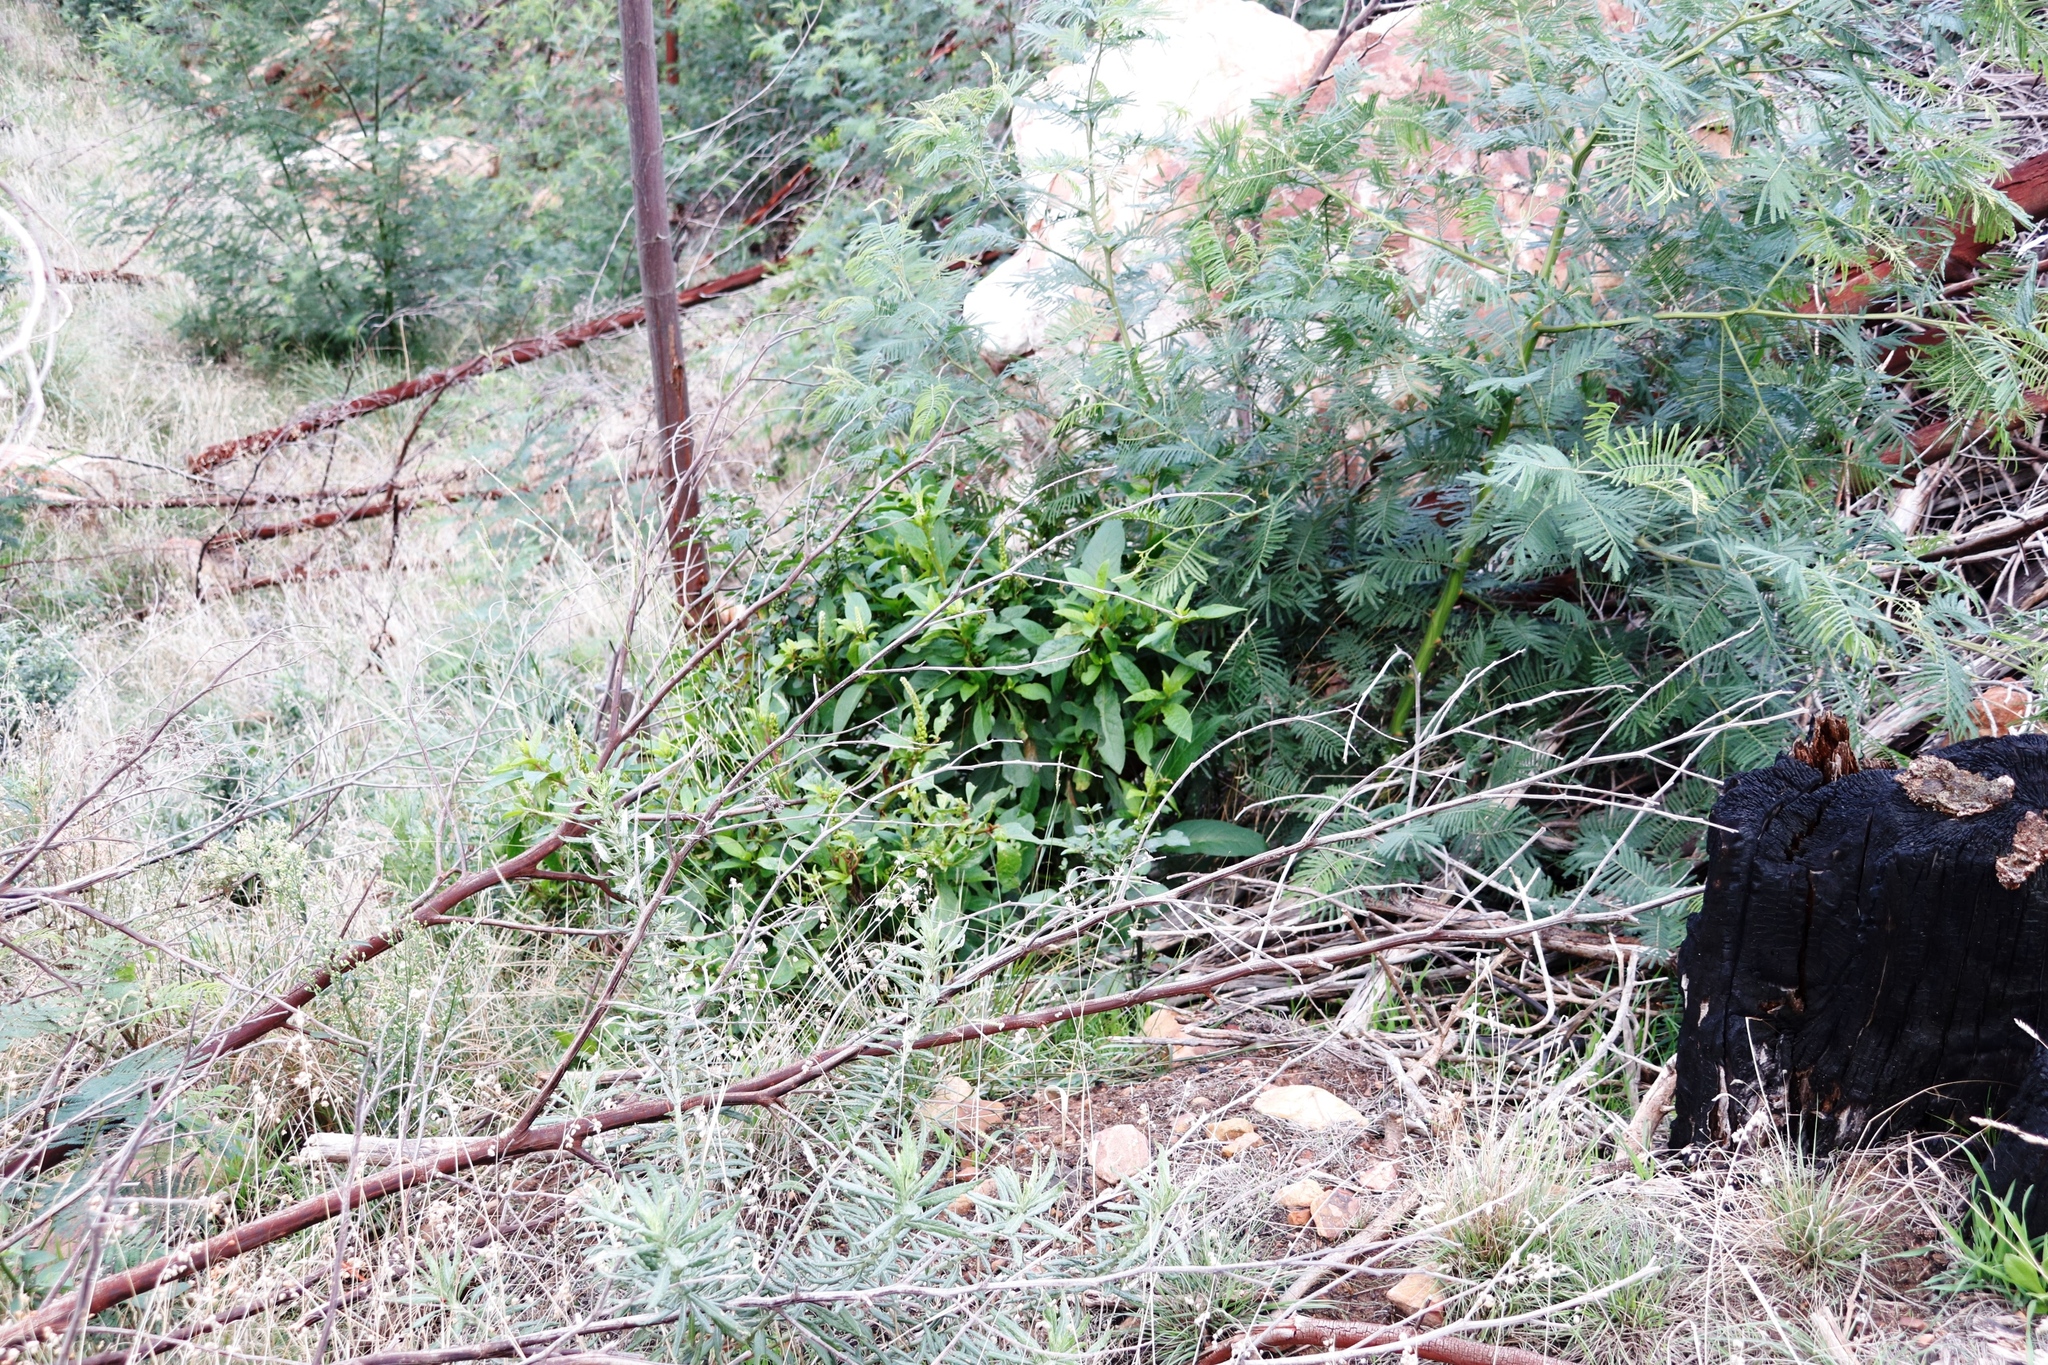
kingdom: Plantae
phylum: Tracheophyta
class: Magnoliopsida
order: Caryophyllales
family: Phytolaccaceae
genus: Phytolacca
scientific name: Phytolacca icosandra
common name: Button pokeweed
